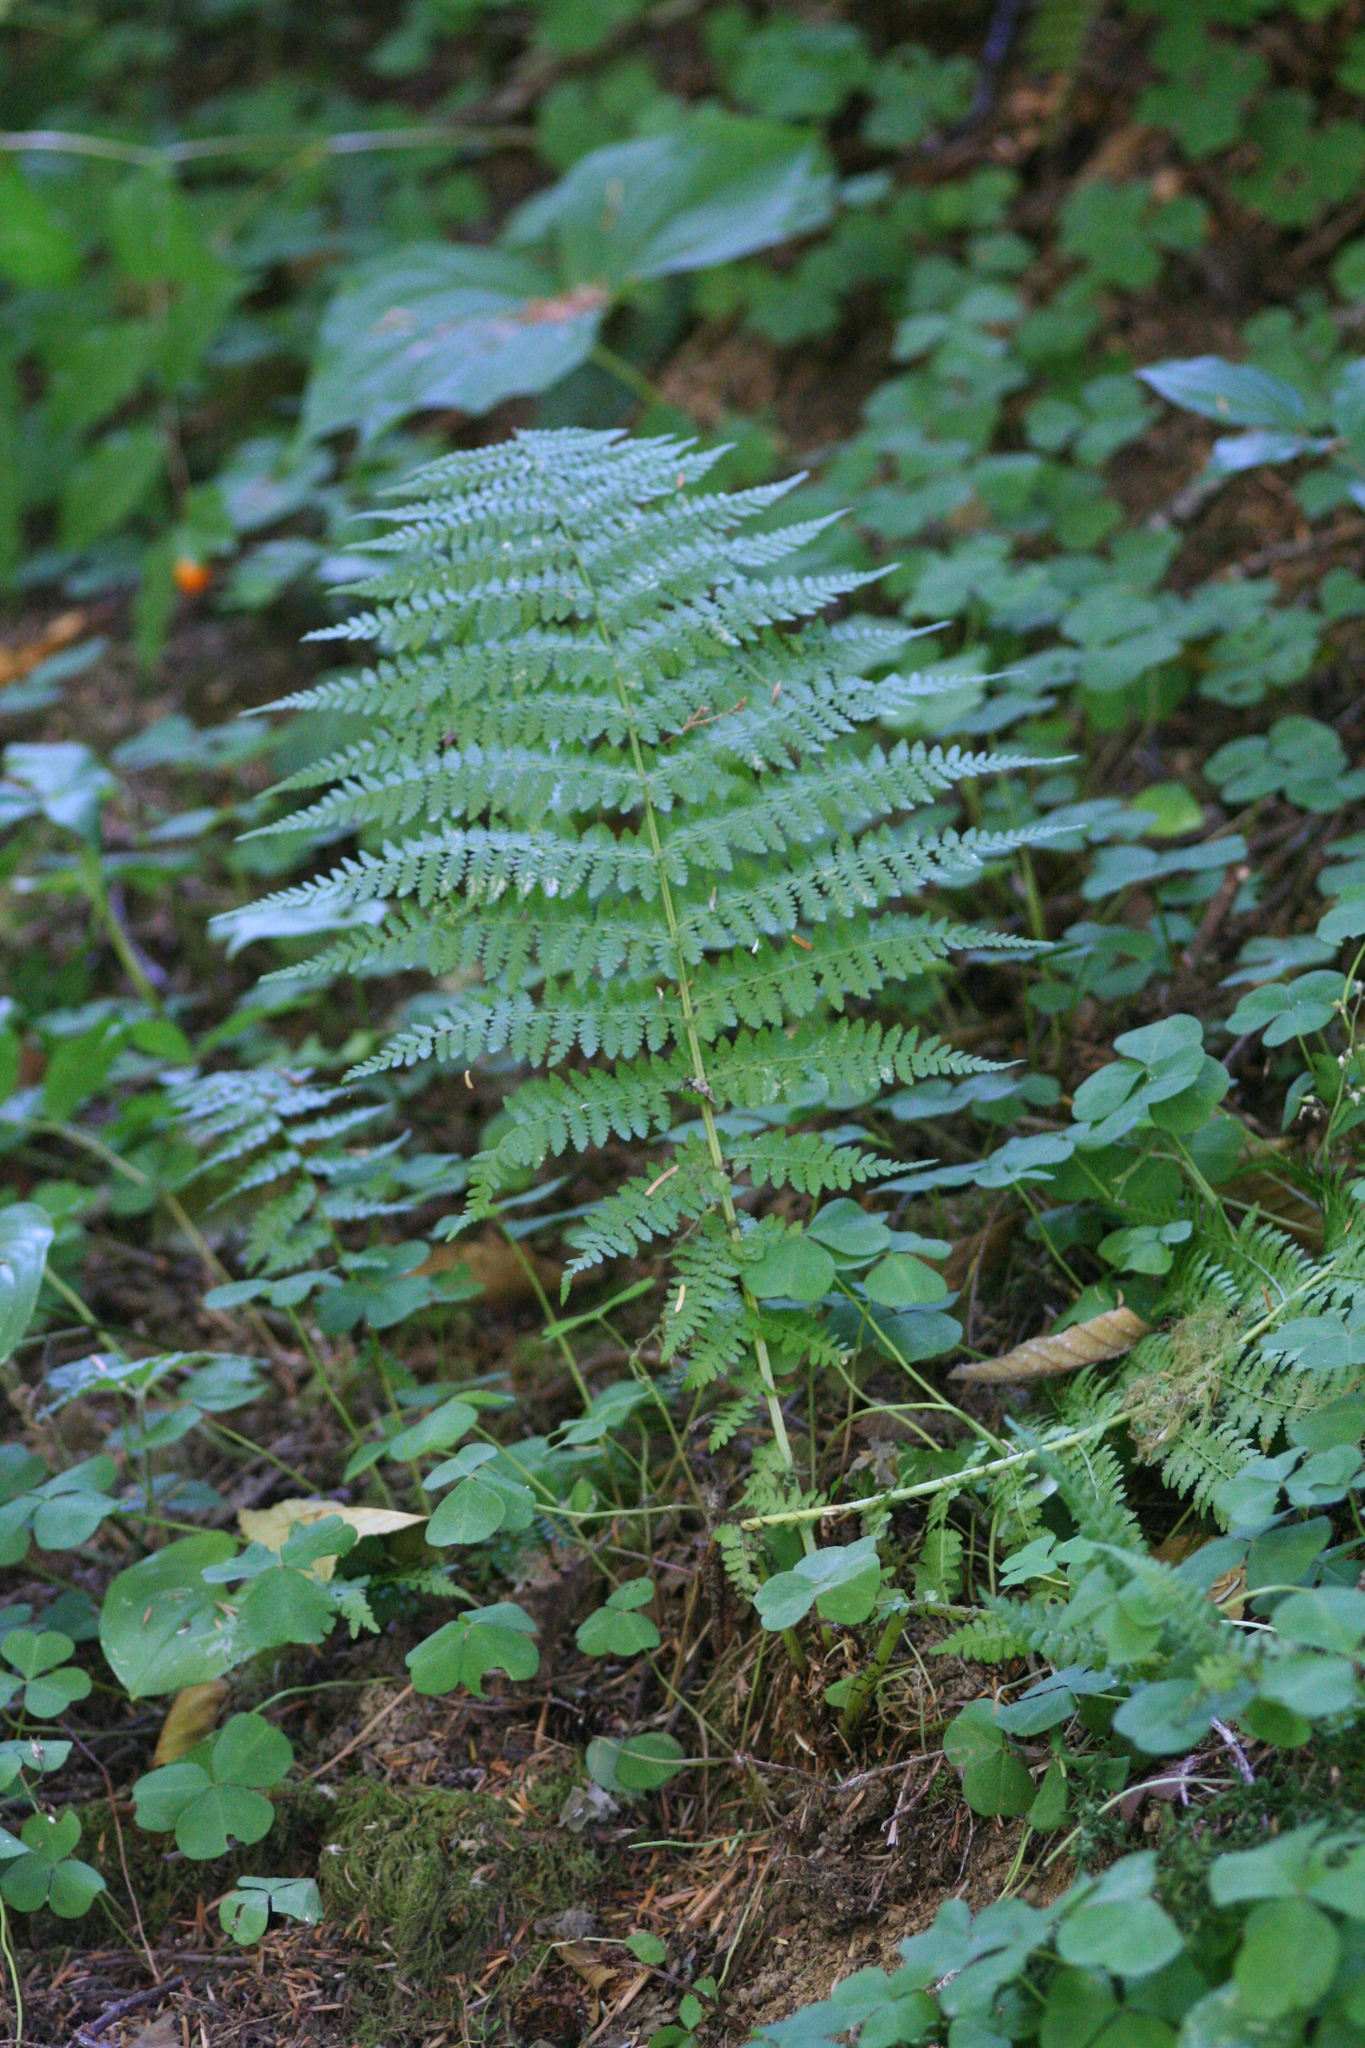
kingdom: Plantae
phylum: Tracheophyta
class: Polypodiopsida
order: Polypodiales
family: Athyriaceae
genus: Athyrium
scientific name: Athyrium filix-femina
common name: Lady fern
